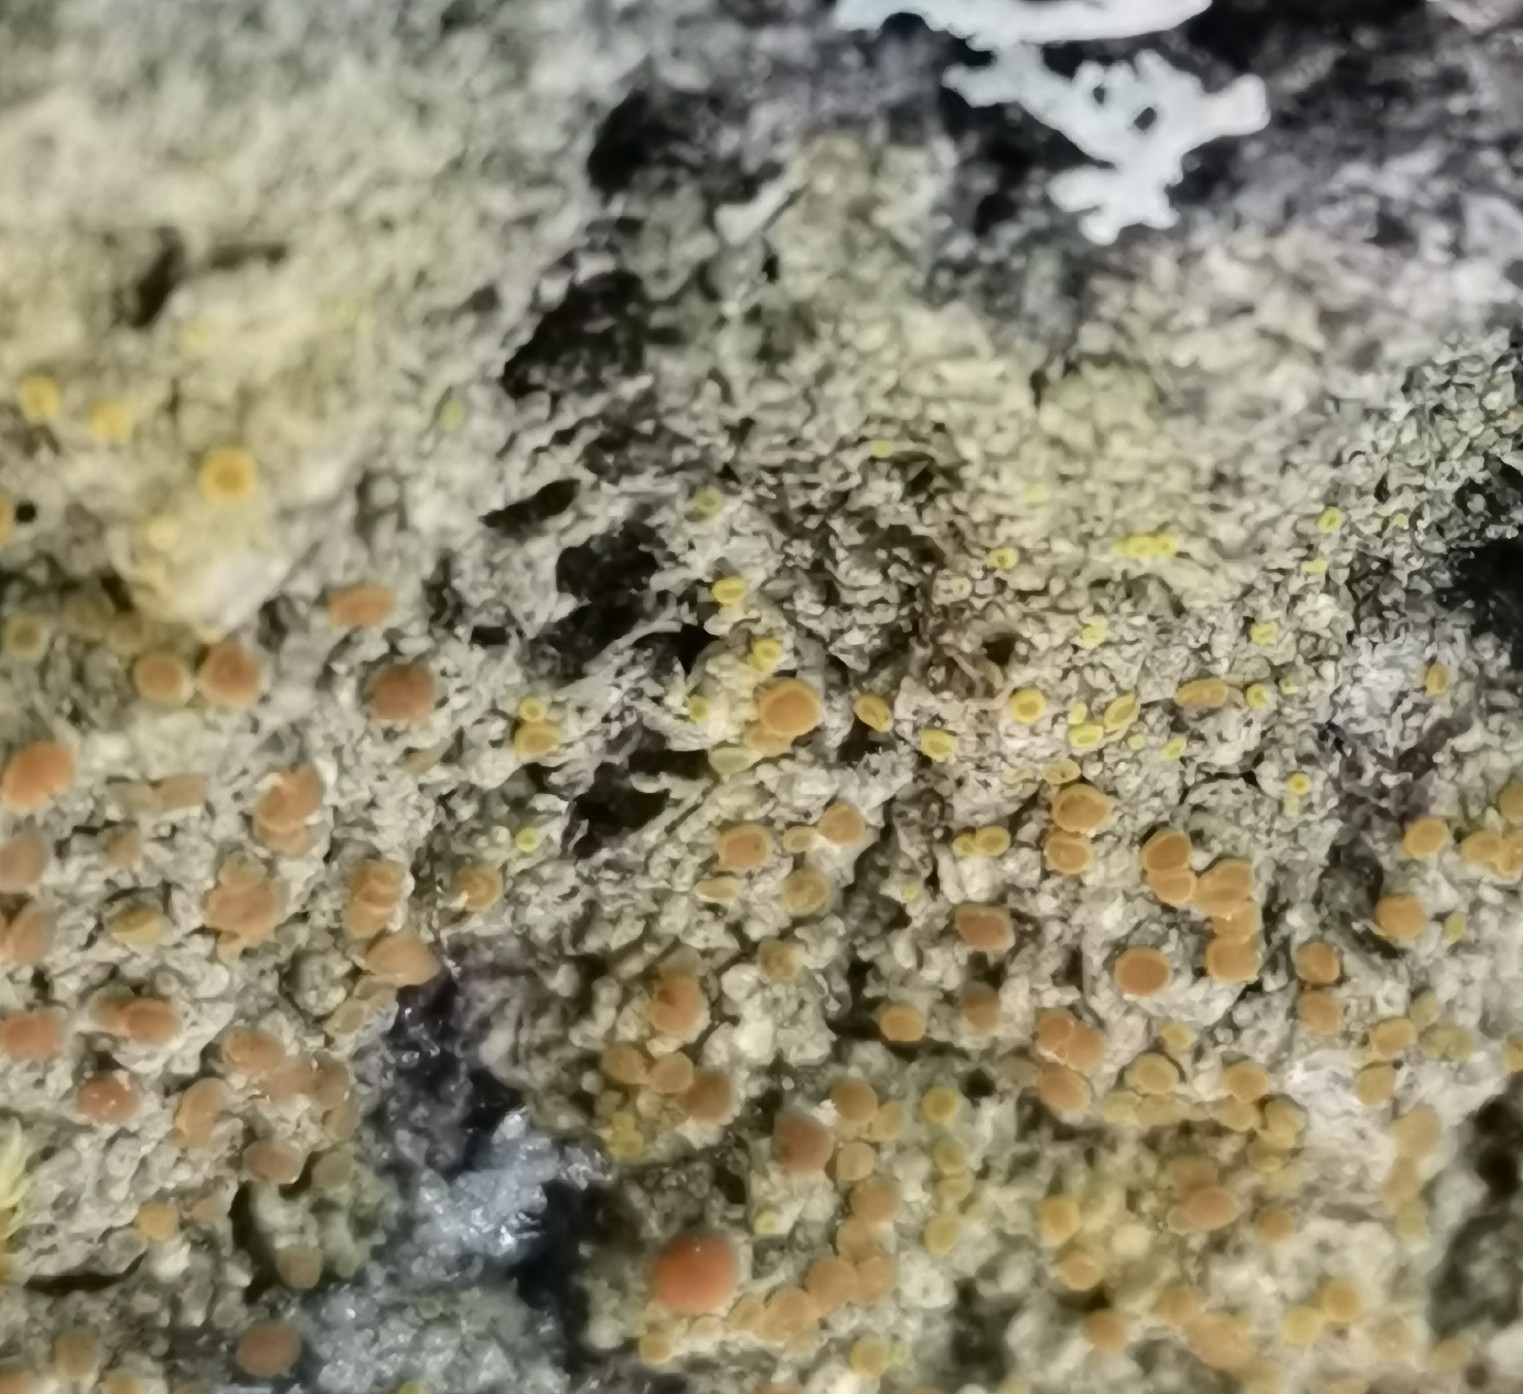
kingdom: Fungi
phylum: Ascomycota
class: Lecanoromycetes
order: Teloschistales
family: Teloschistaceae
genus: Opeltia
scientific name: Opeltia flavorubescens
